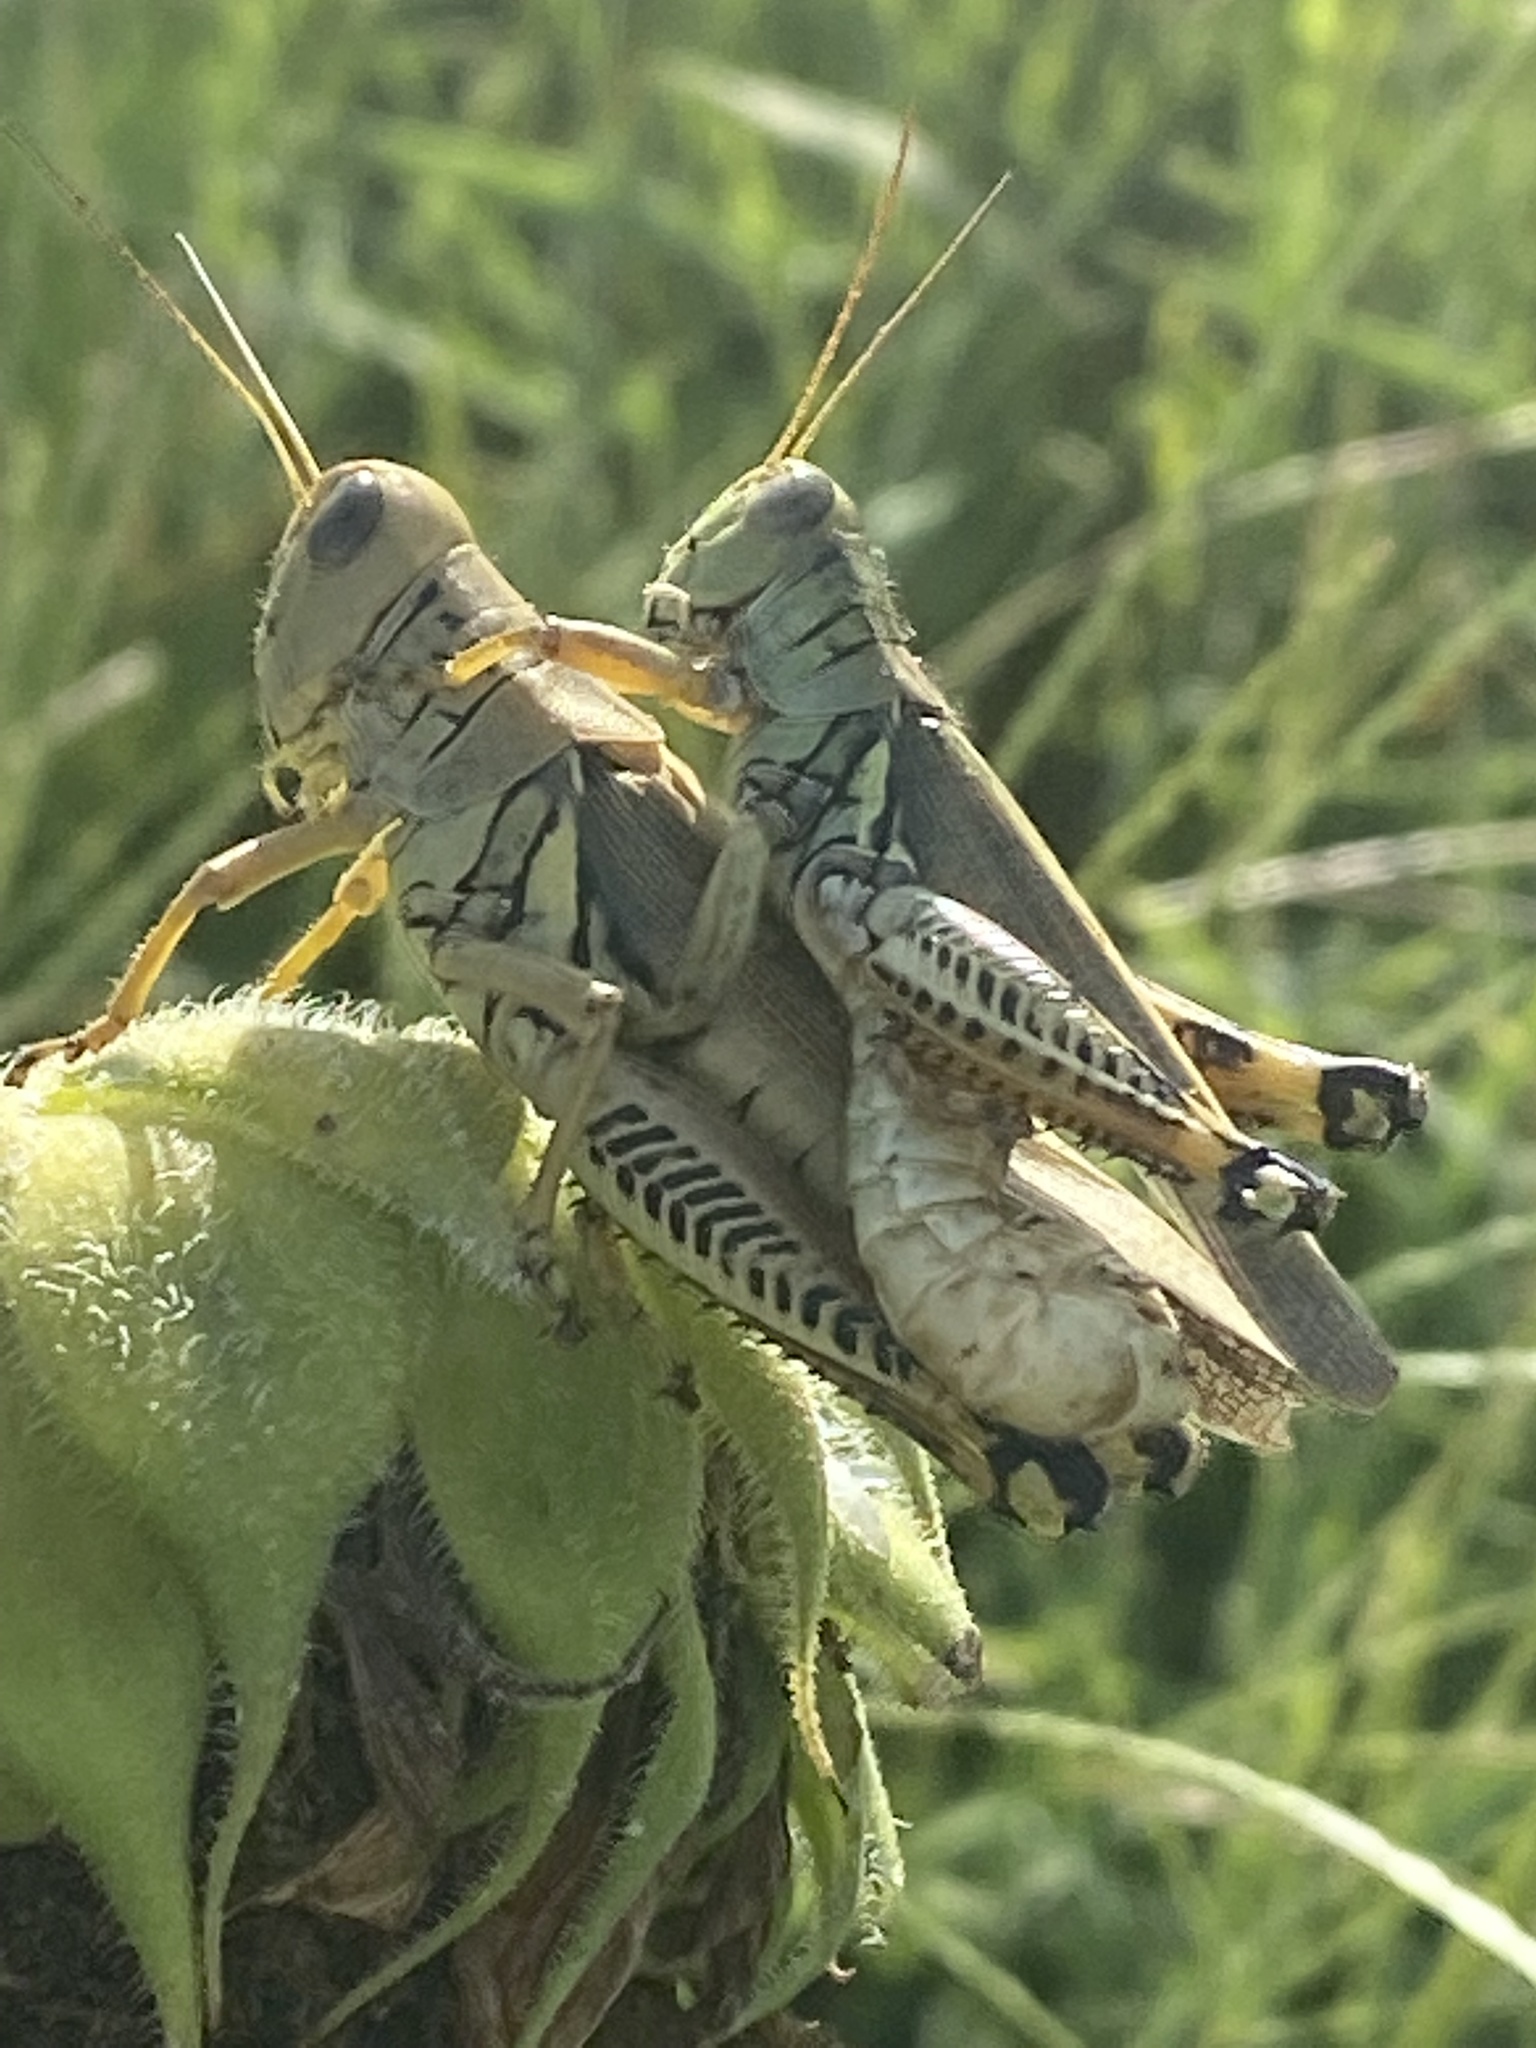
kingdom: Animalia
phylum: Arthropoda
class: Insecta
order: Orthoptera
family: Acrididae
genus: Melanoplus
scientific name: Melanoplus differentialis
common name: Differential grasshopper
